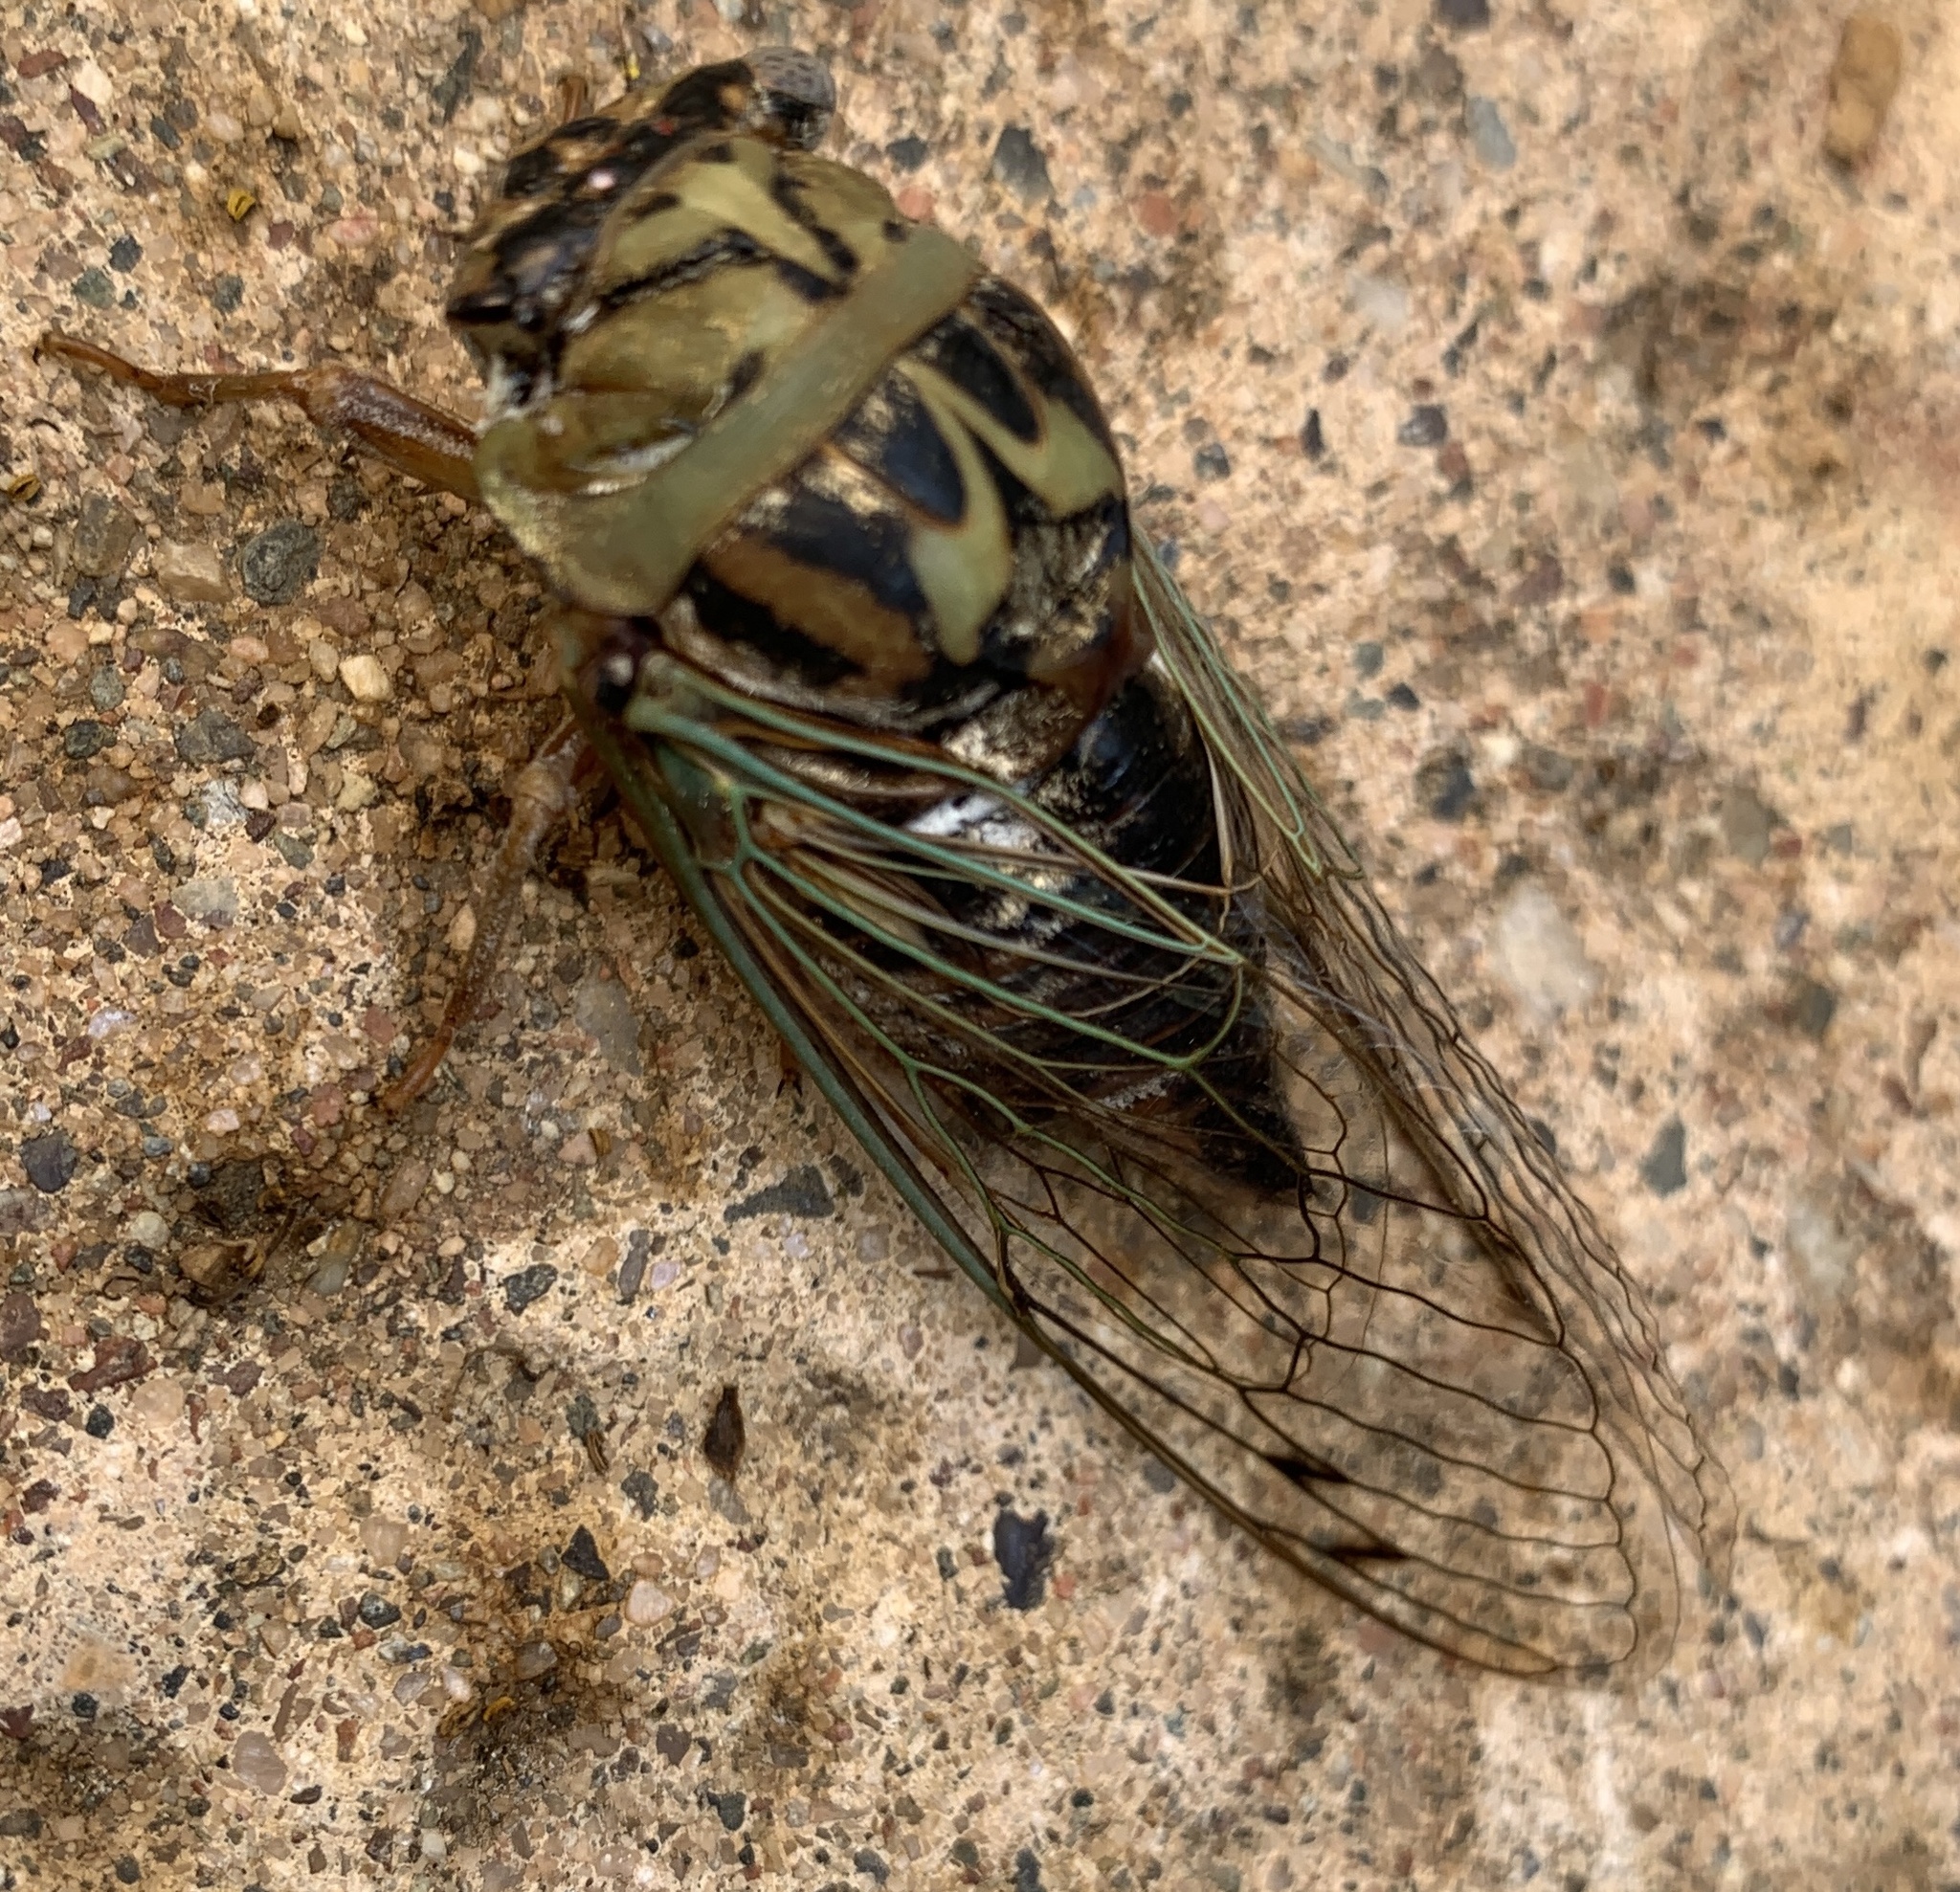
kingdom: Animalia
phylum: Arthropoda
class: Insecta
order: Hemiptera
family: Cicadidae
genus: Megatibicen
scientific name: Megatibicen resh
